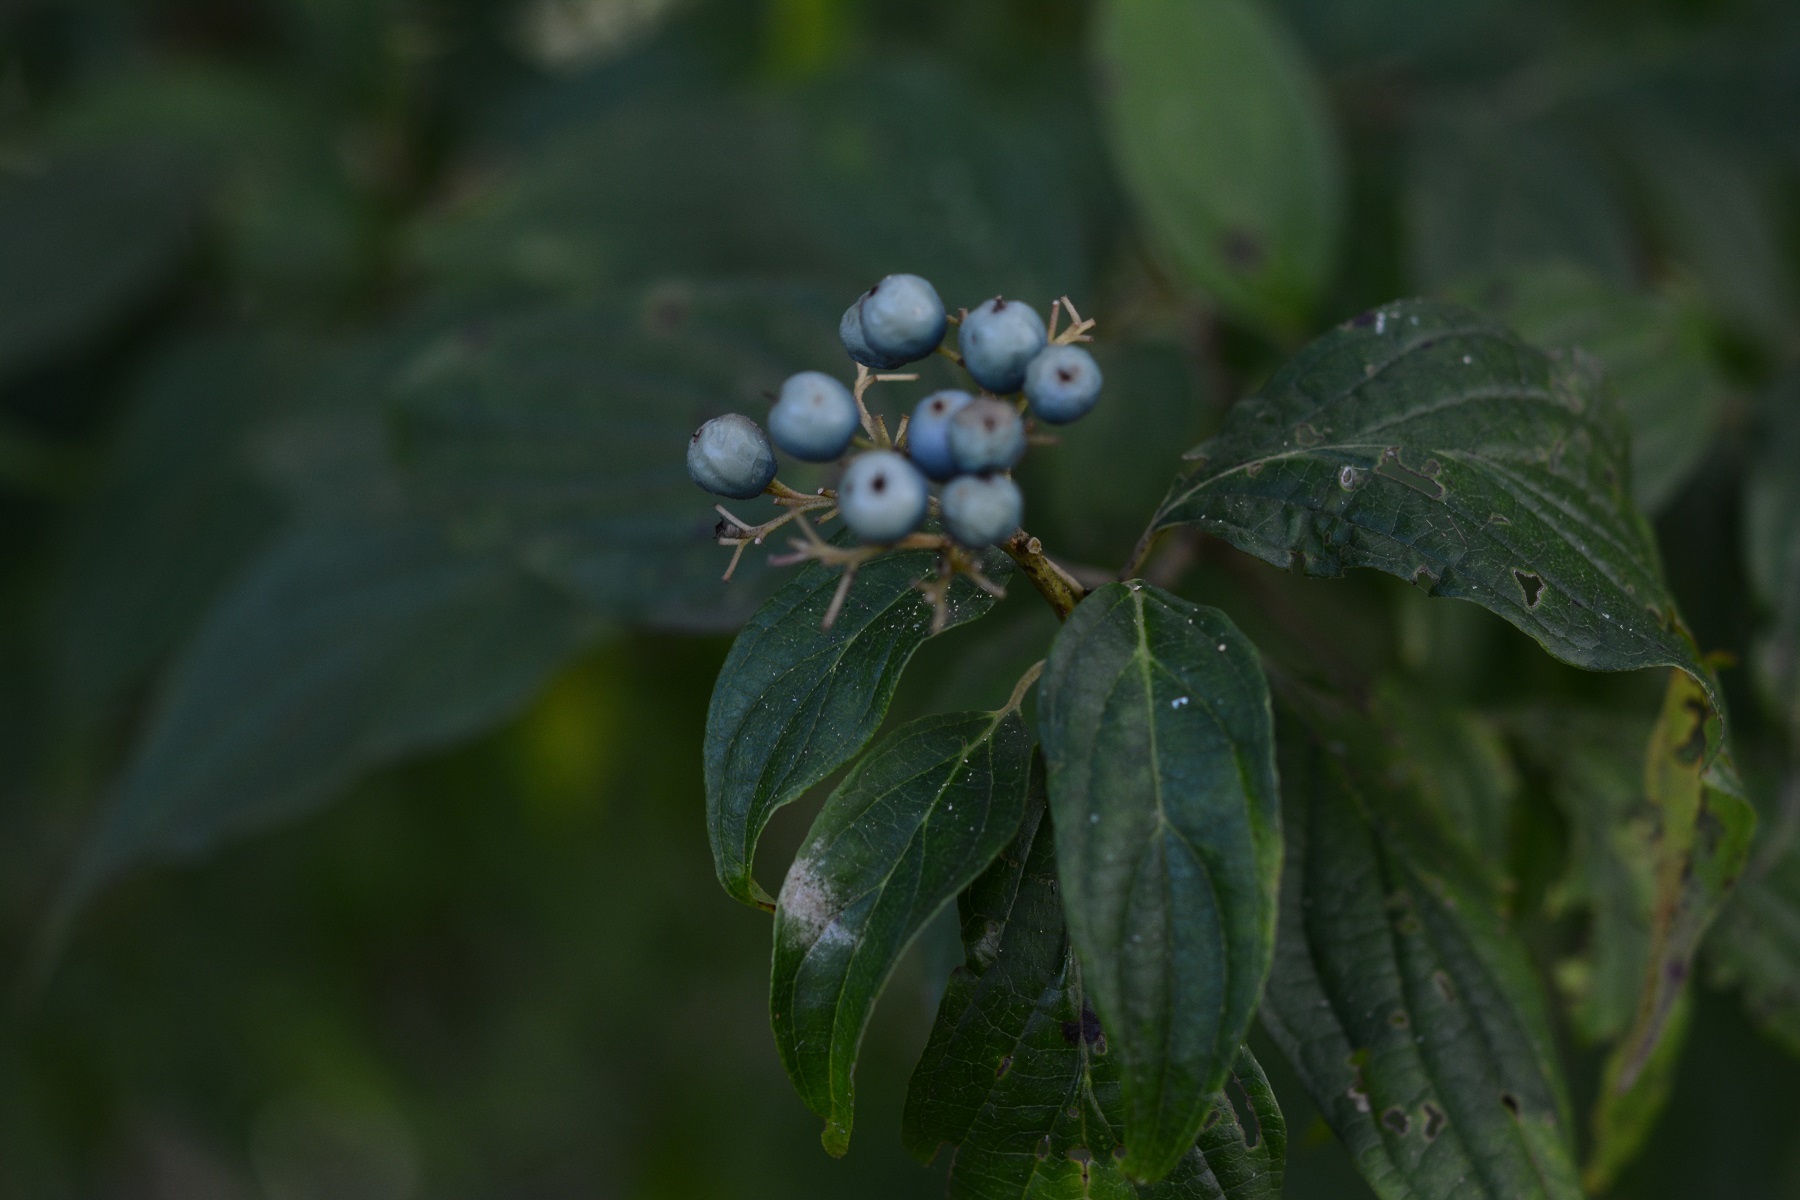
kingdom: Plantae
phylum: Tracheophyta
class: Magnoliopsida
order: Cornales
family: Cornaceae
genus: Cornus
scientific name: Cornus excelsa
